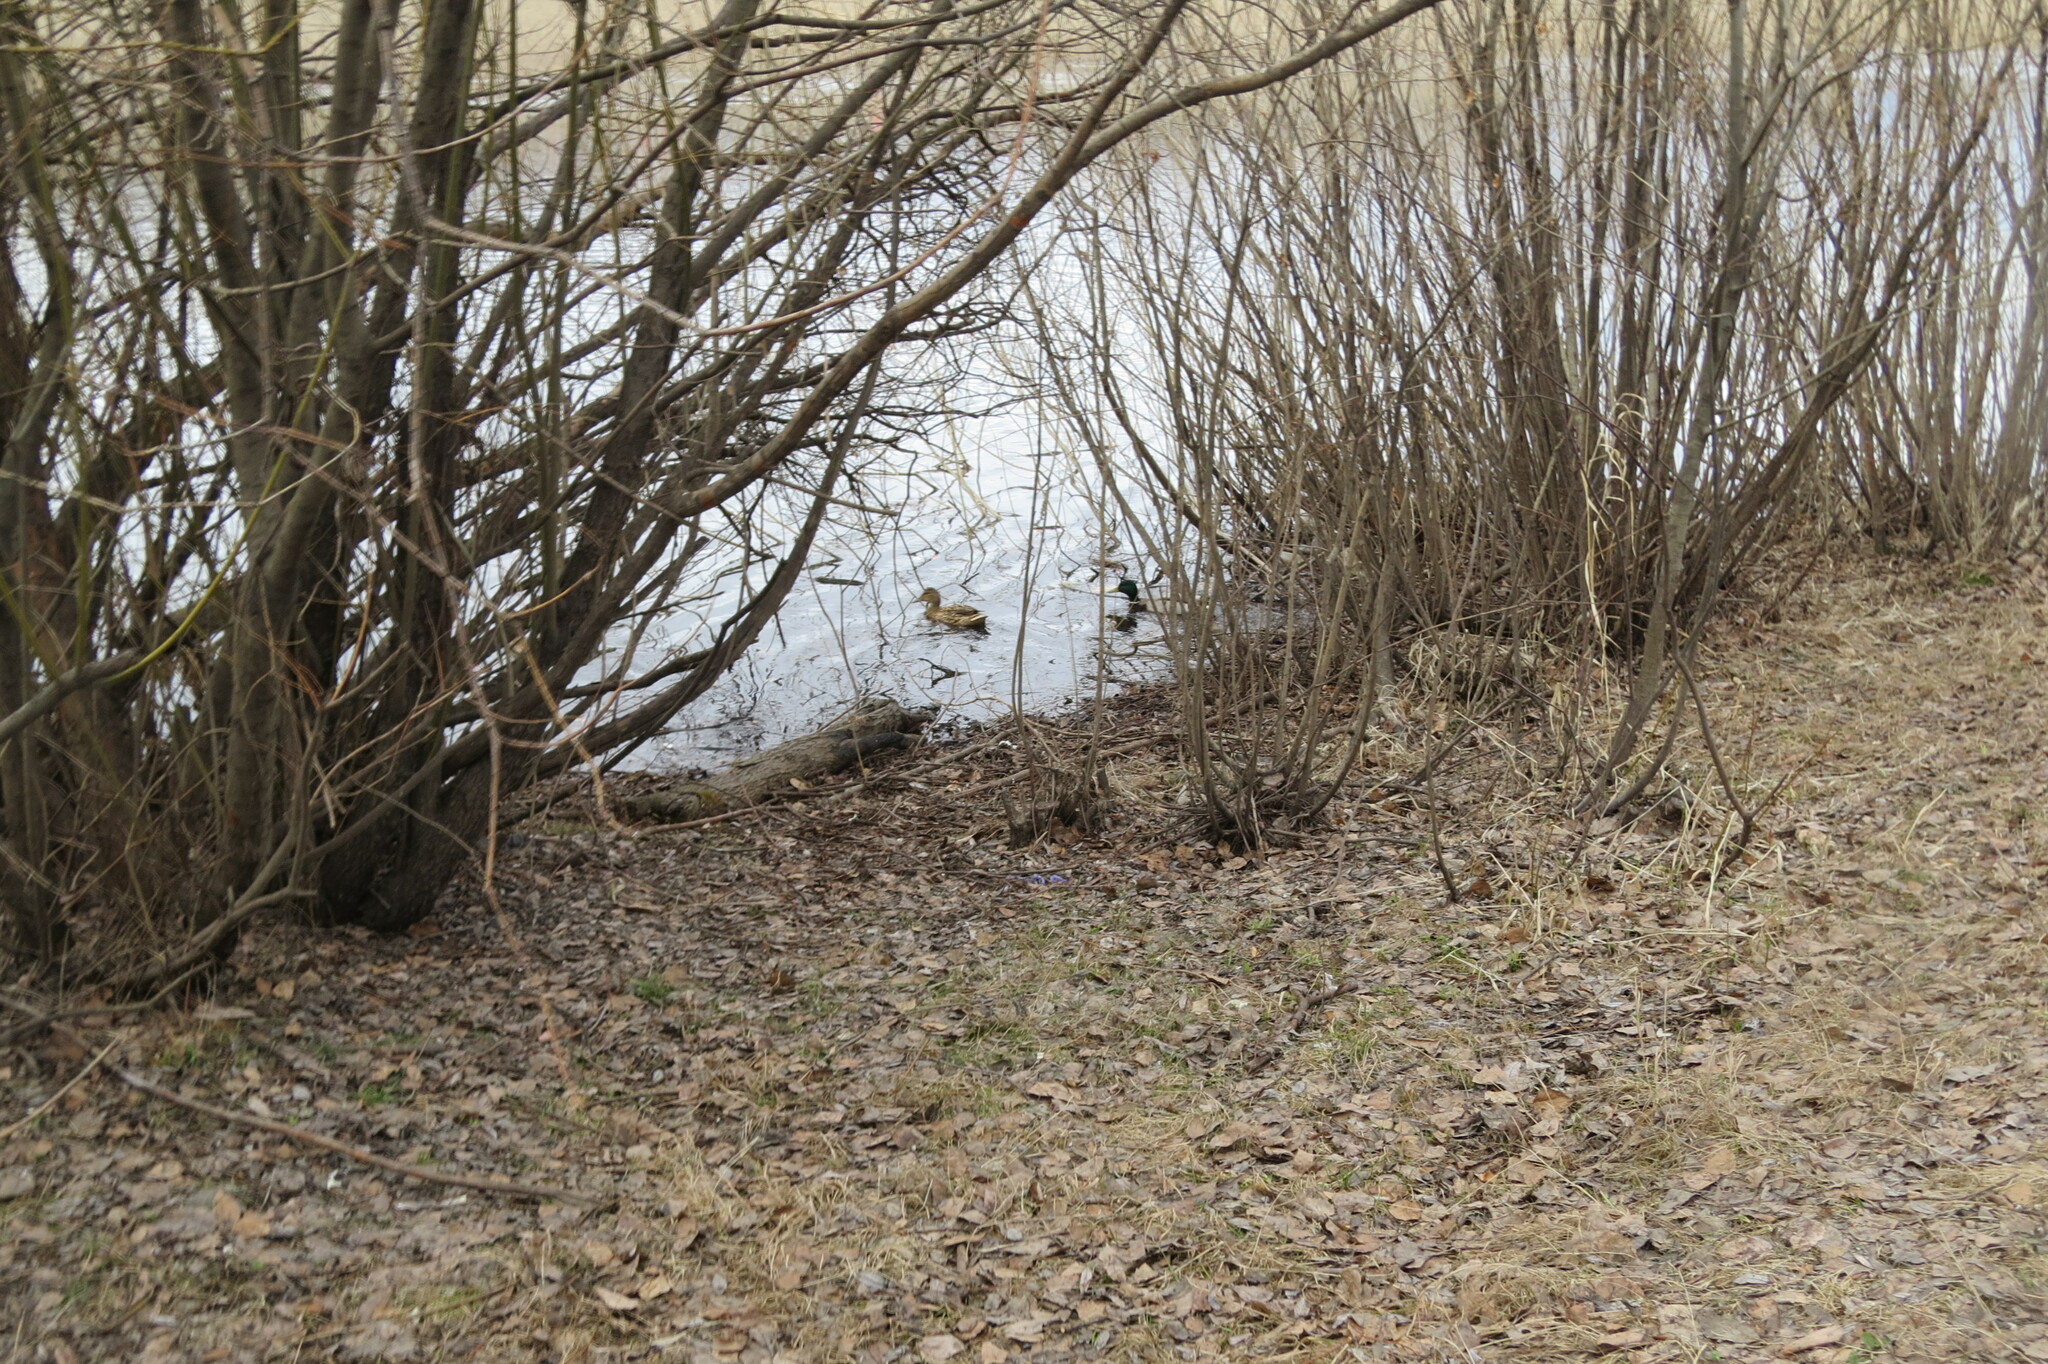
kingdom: Animalia
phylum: Chordata
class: Aves
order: Anseriformes
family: Anatidae
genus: Anas
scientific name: Anas platyrhynchos
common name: Mallard
